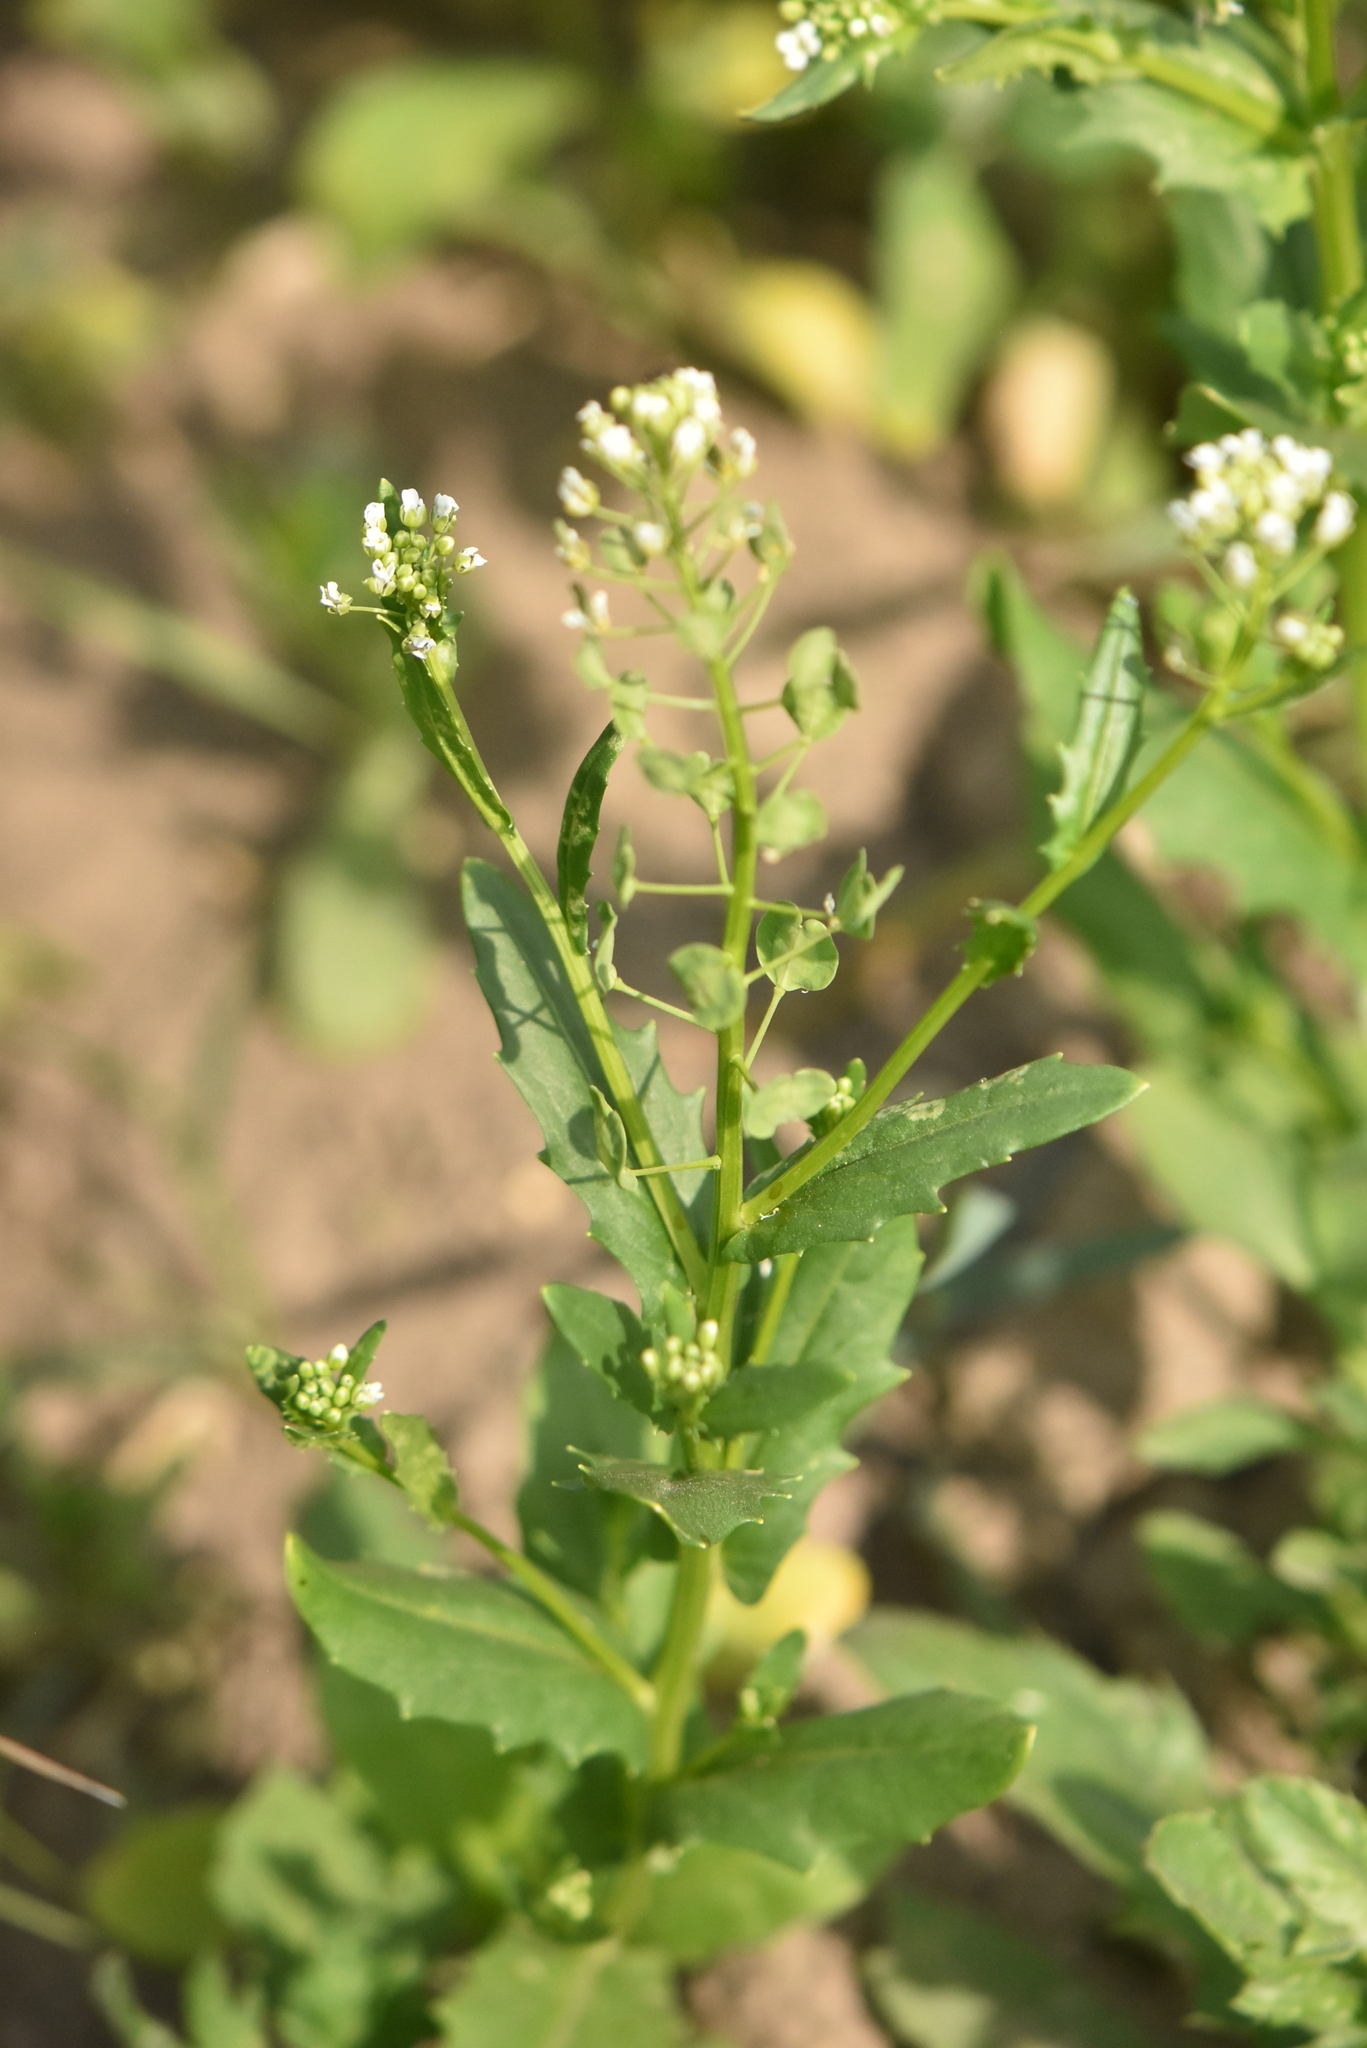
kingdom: Plantae
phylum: Tracheophyta
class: Magnoliopsida
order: Brassicales
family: Brassicaceae
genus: Thlaspi
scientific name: Thlaspi arvense
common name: Field pennycress
